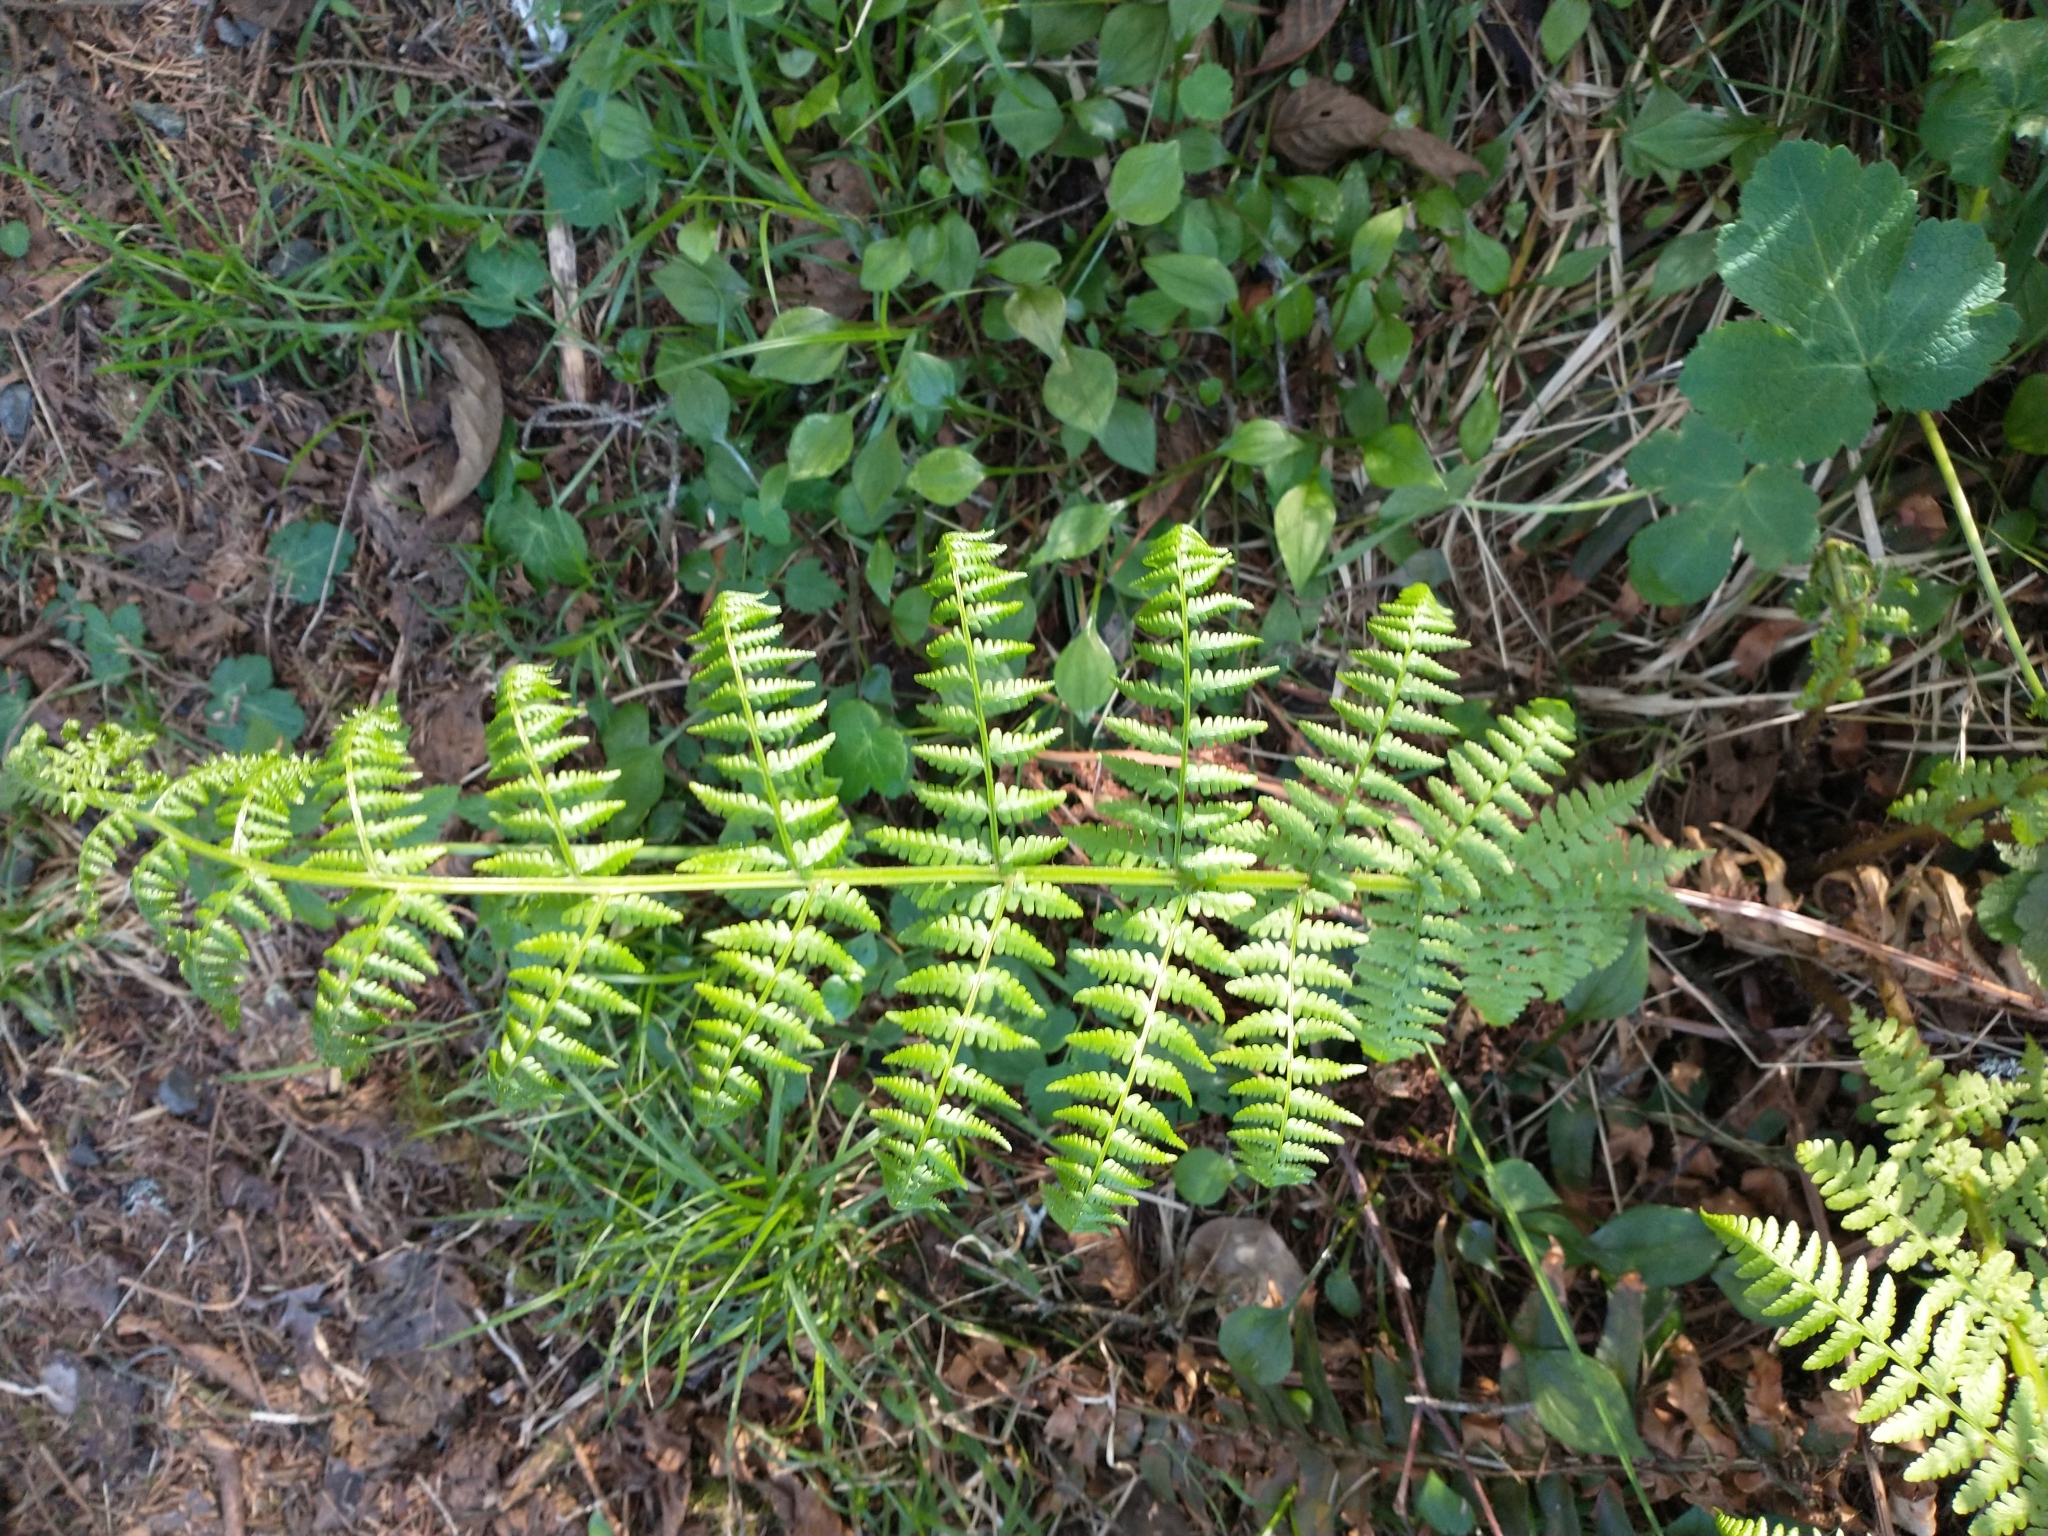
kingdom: Plantae
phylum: Tracheophyta
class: Polypodiopsida
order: Polypodiales
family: Athyriaceae
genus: Athyrium
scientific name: Athyrium cyclosorum
